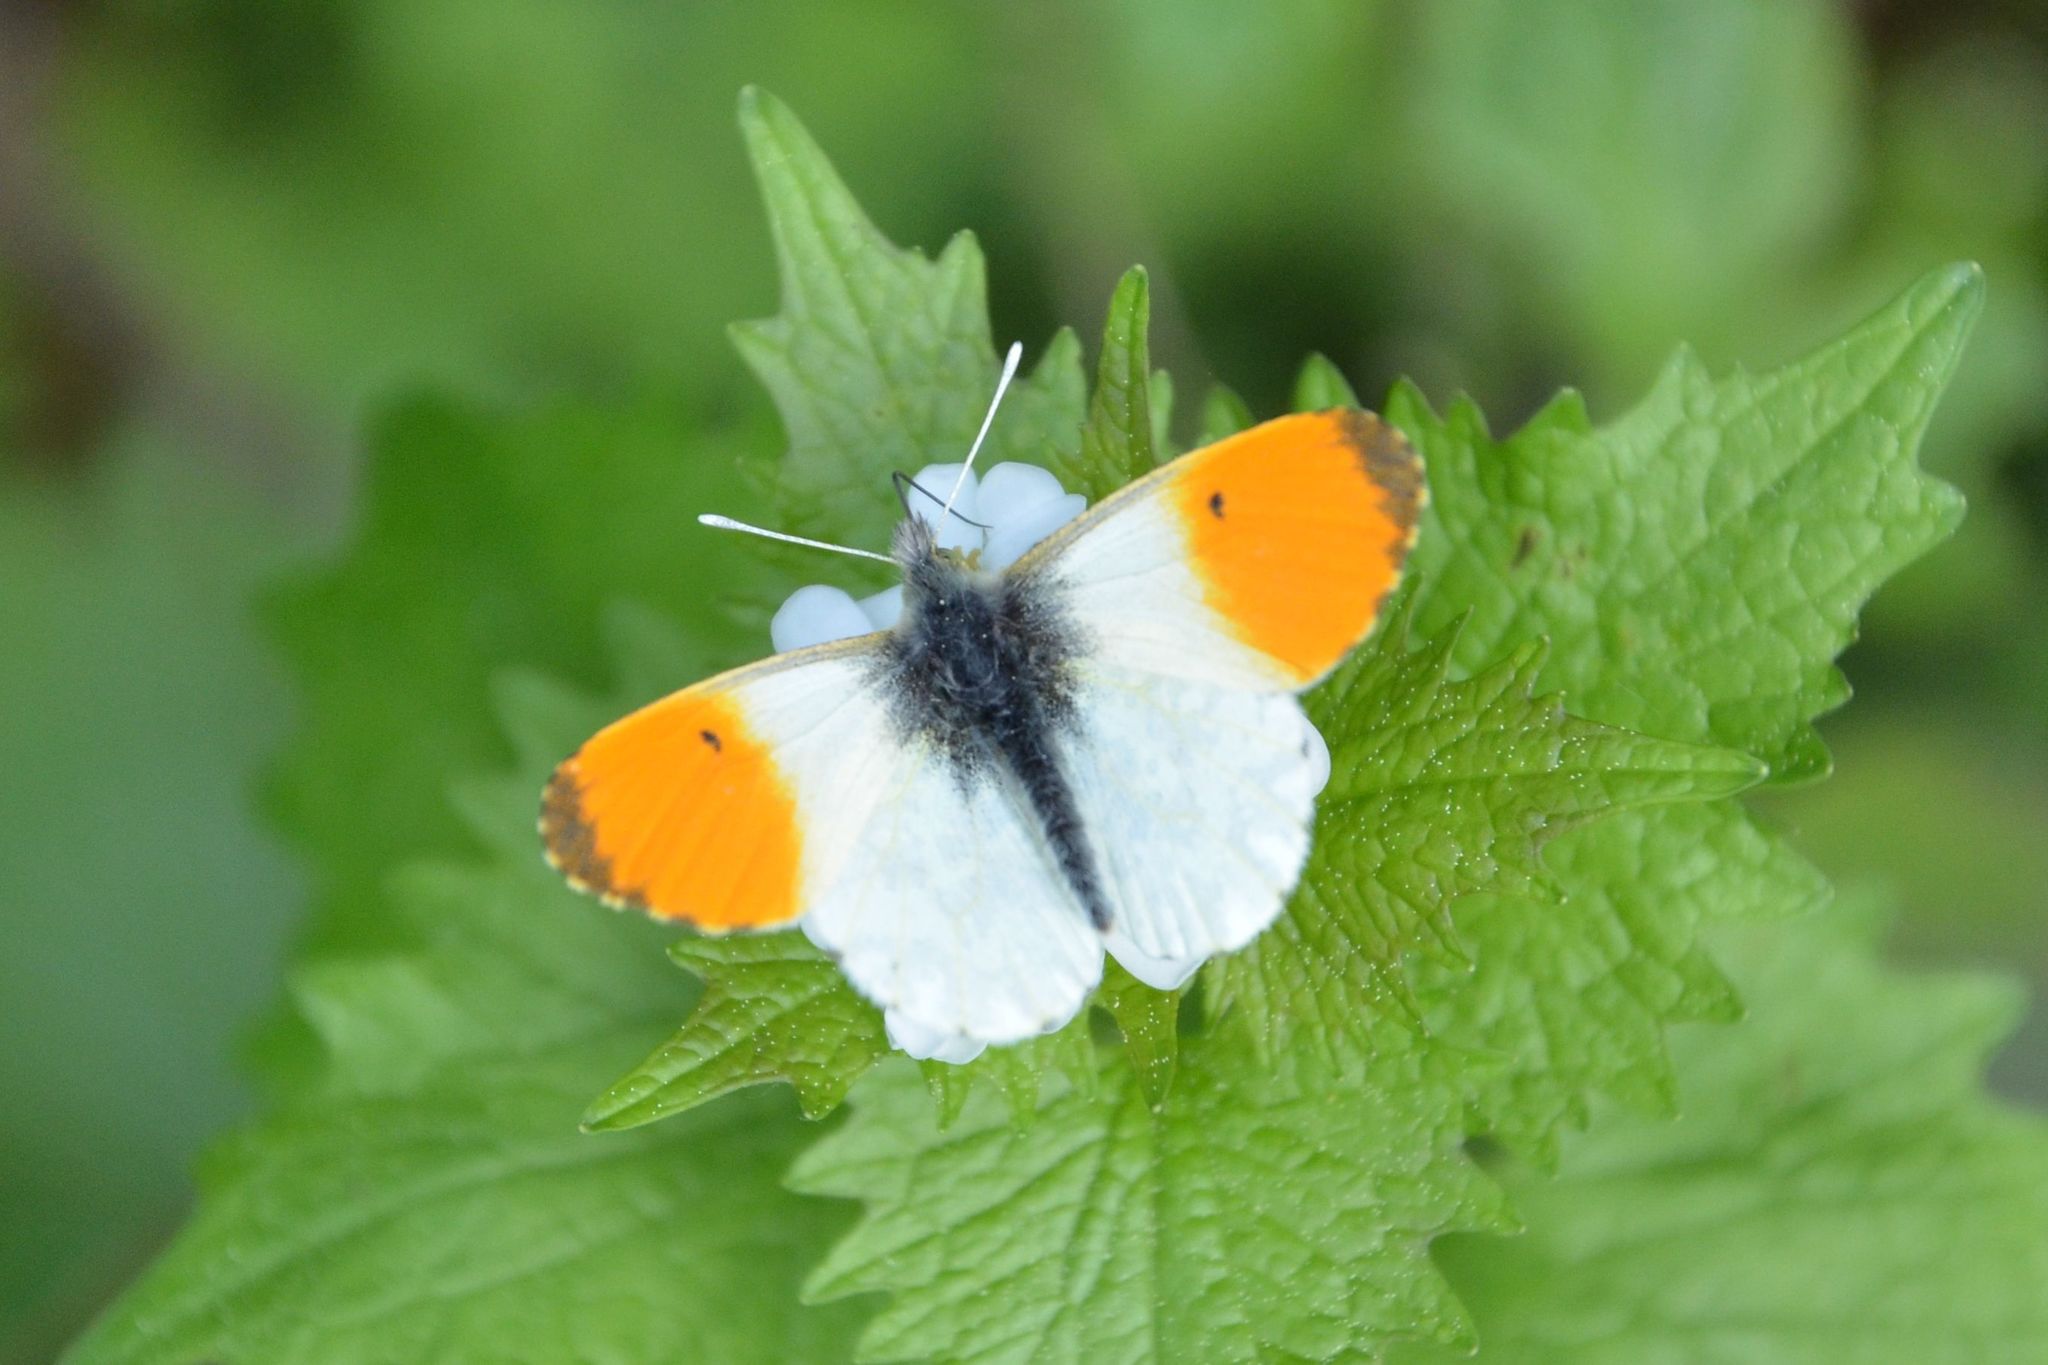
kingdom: Animalia
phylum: Arthropoda
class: Insecta
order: Lepidoptera
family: Pieridae
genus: Anthocharis
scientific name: Anthocharis cardamines
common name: Orange-tip
